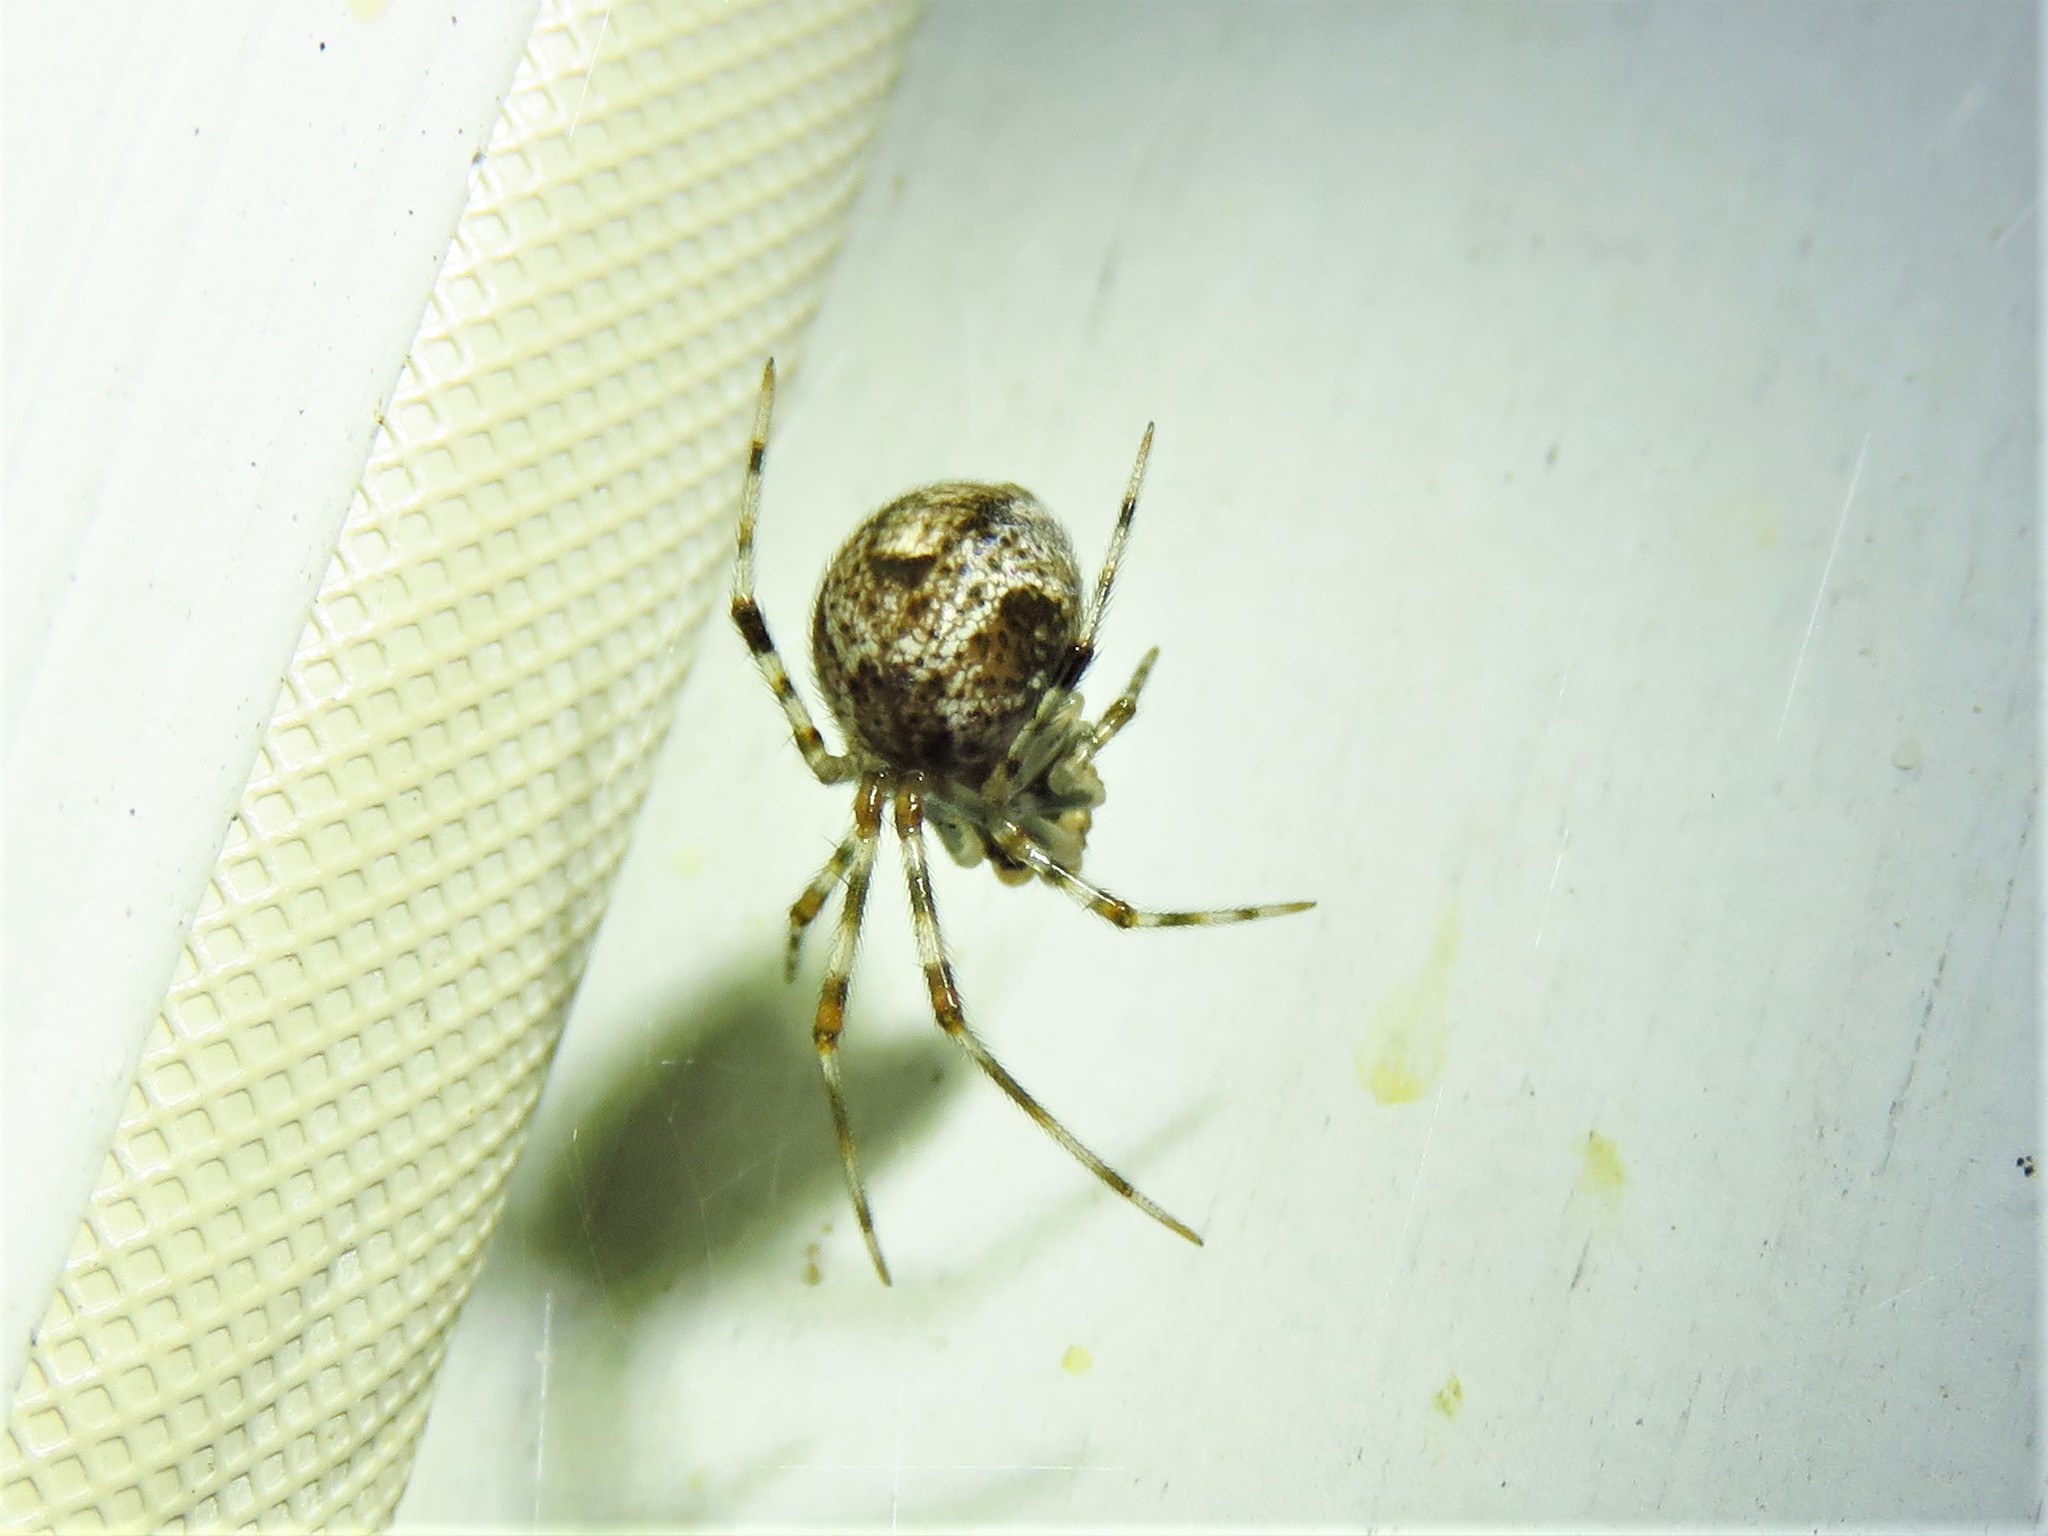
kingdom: Animalia
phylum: Arthropoda
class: Arachnida
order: Araneae
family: Theridiidae
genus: Parasteatoda
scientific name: Parasteatoda tepidariorum
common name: Common house spider
